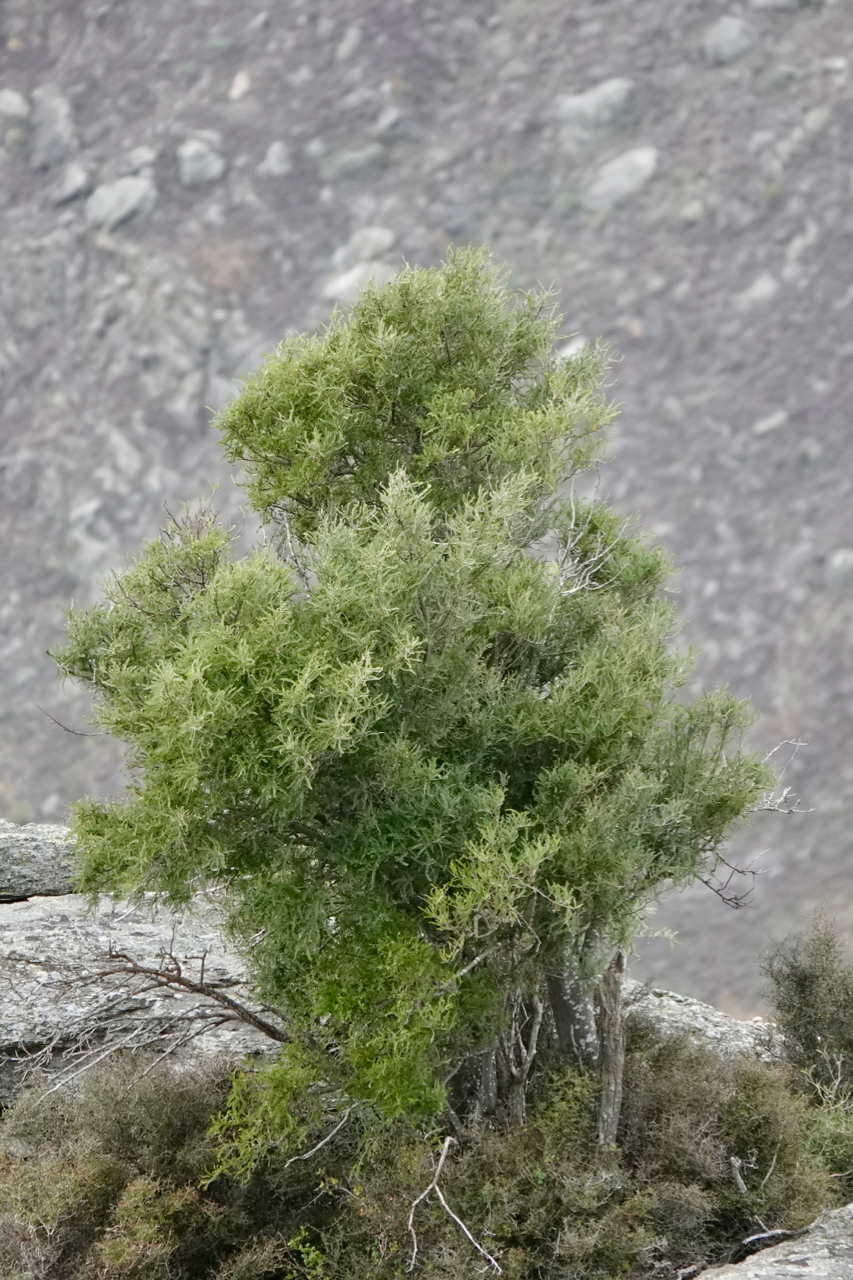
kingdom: Plantae
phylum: Tracheophyta
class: Magnoliopsida
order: Fabales
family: Fabaceae
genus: Sophora
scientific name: Sophora microphylla
